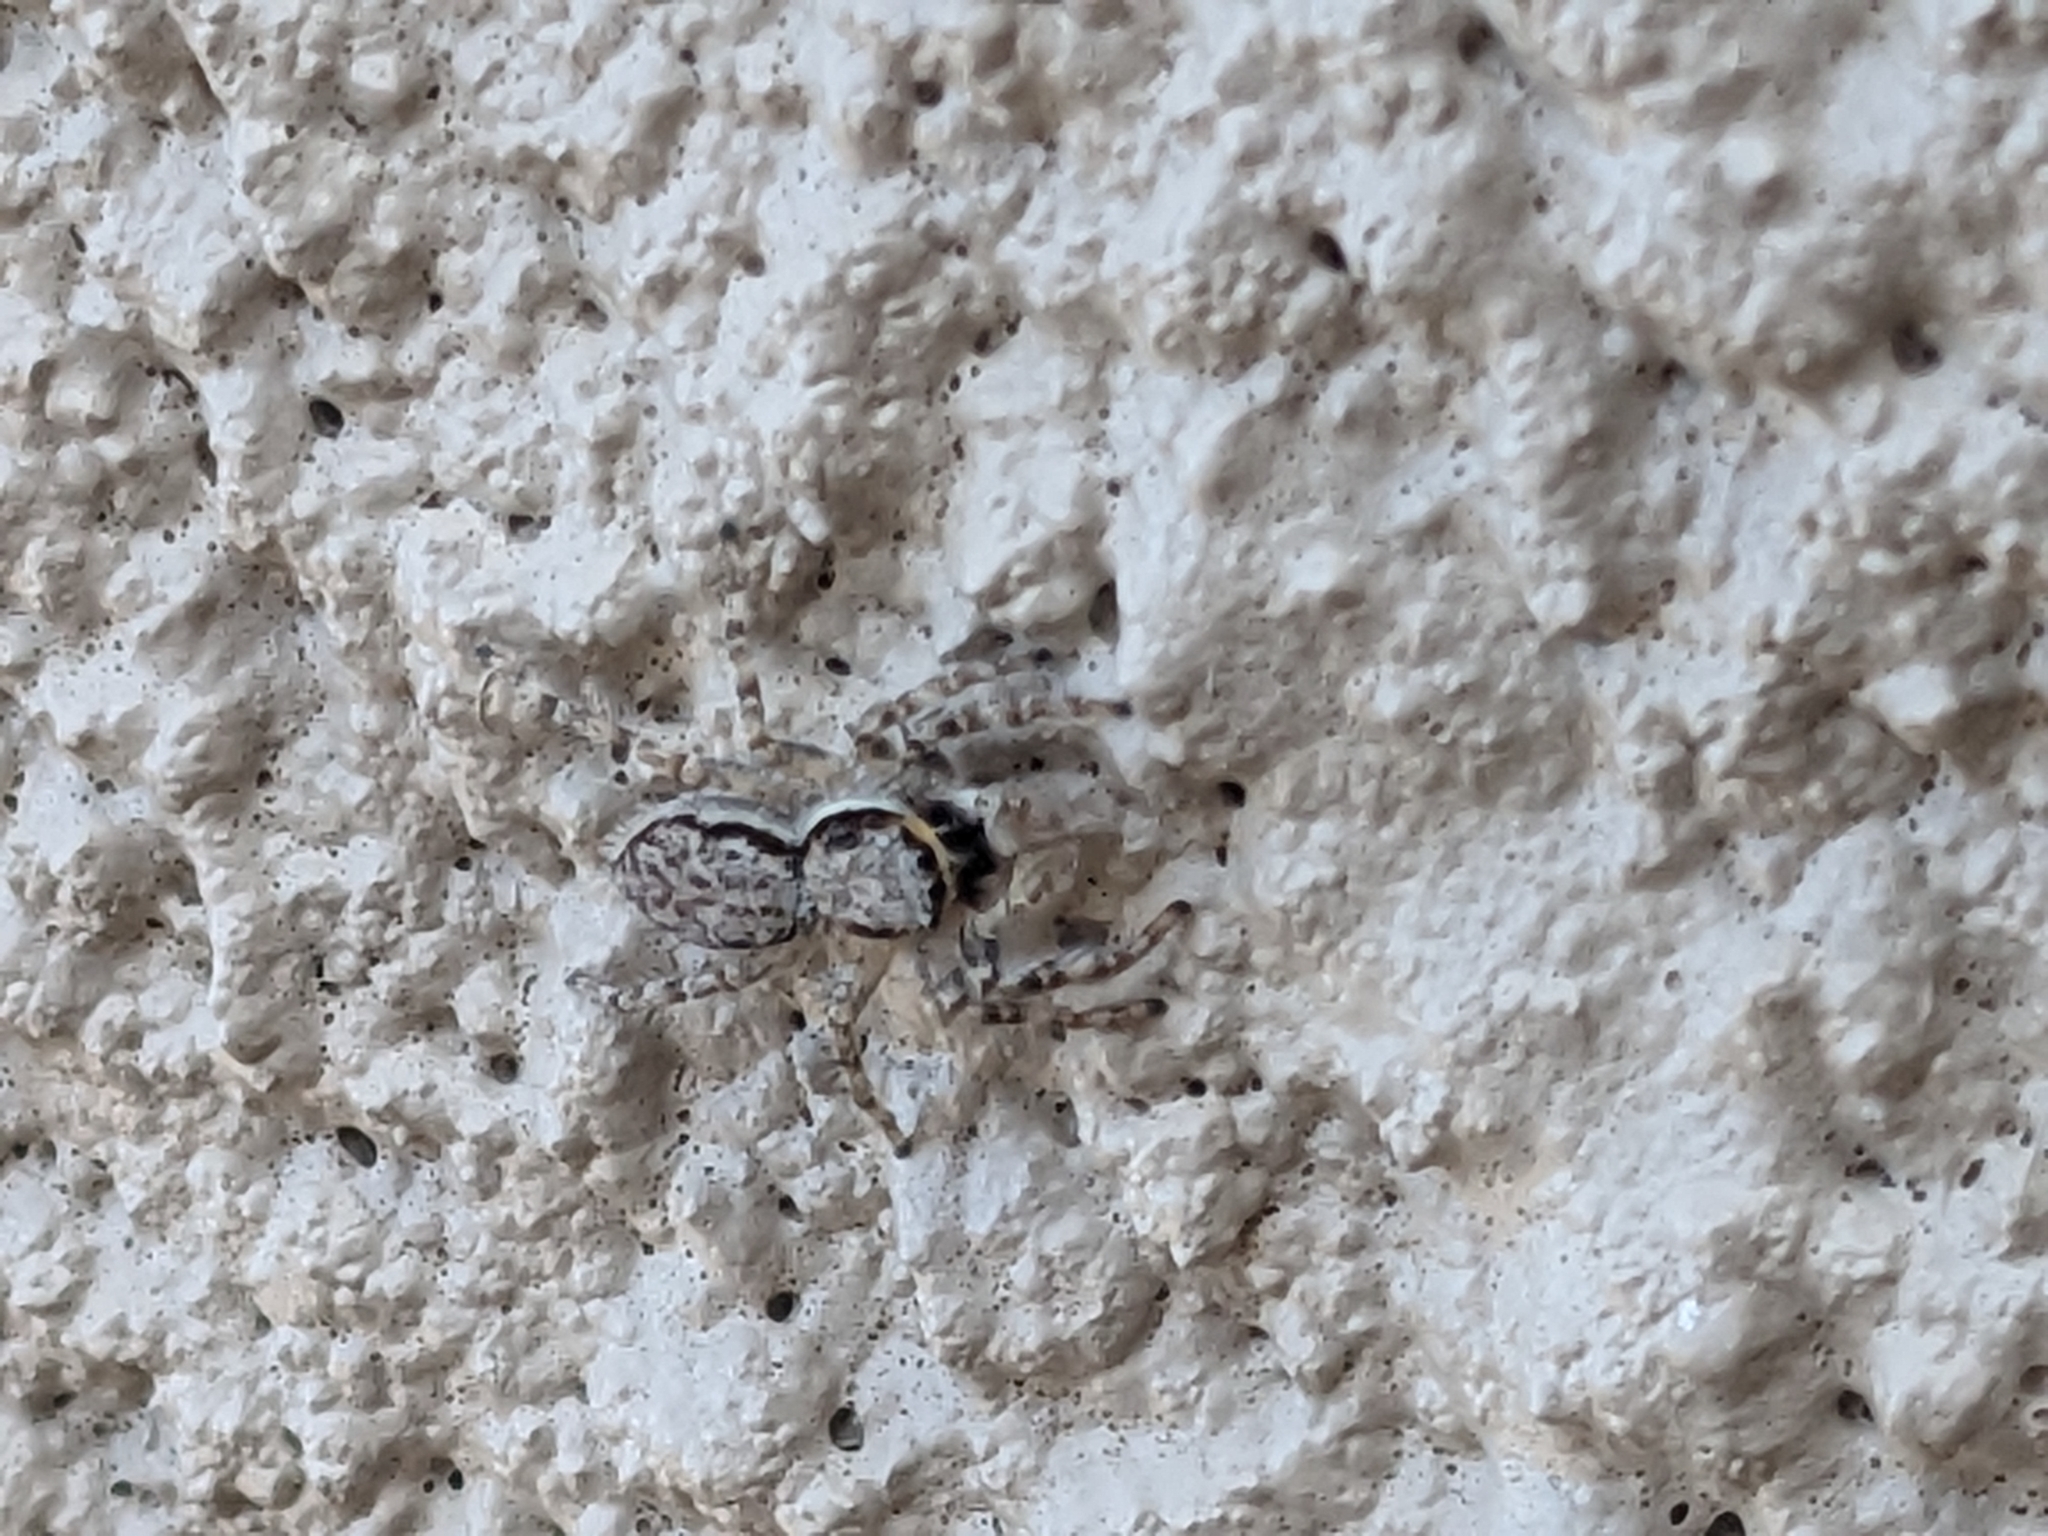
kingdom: Animalia
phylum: Arthropoda
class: Arachnida
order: Araneae
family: Salticidae
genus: Menemerus
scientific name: Menemerus bivittatus
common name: Gray wall jumper
